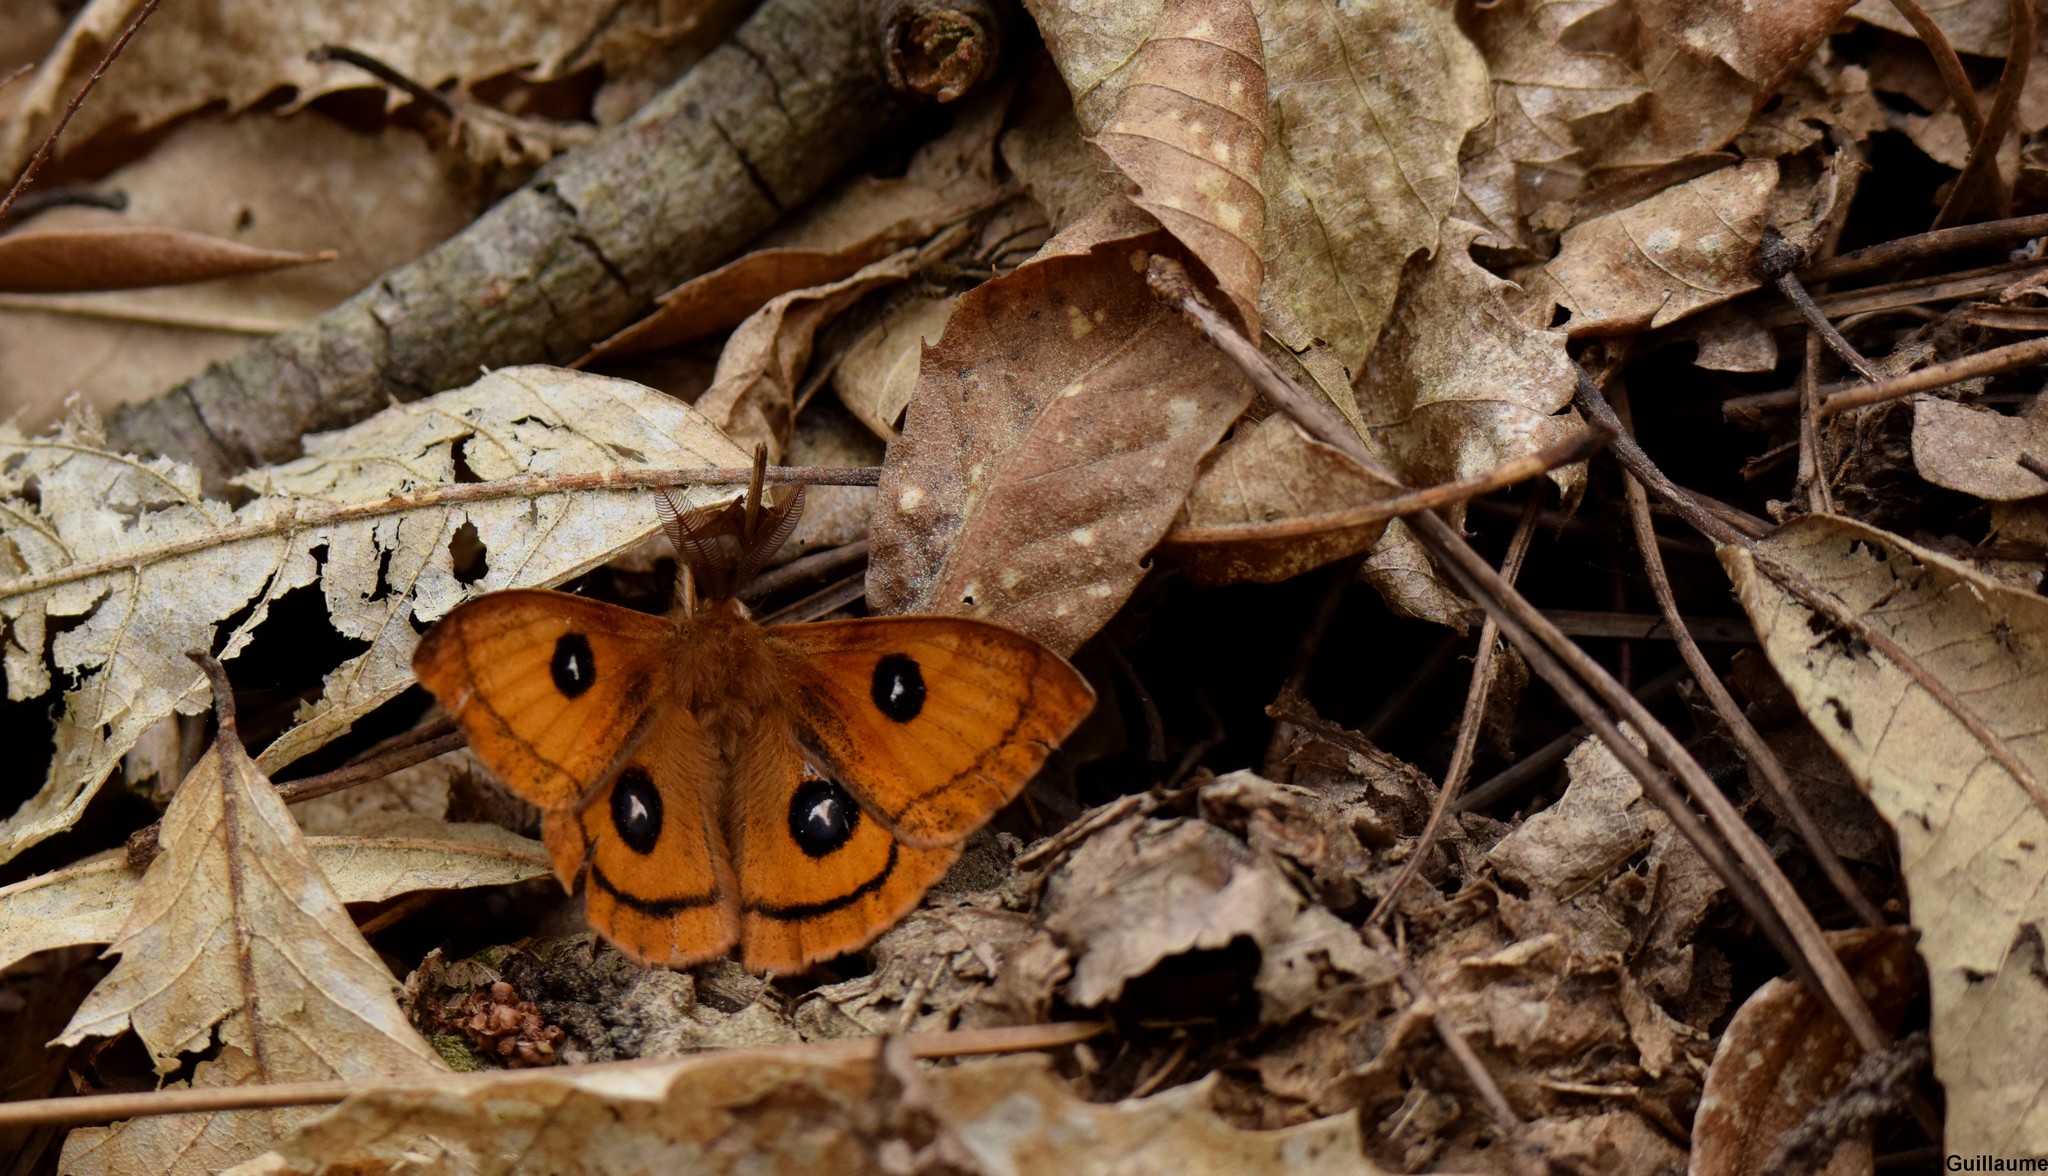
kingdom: Animalia
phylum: Arthropoda
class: Insecta
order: Lepidoptera
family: Saturniidae
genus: Aglia
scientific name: Aglia tau
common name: Tau emperor
